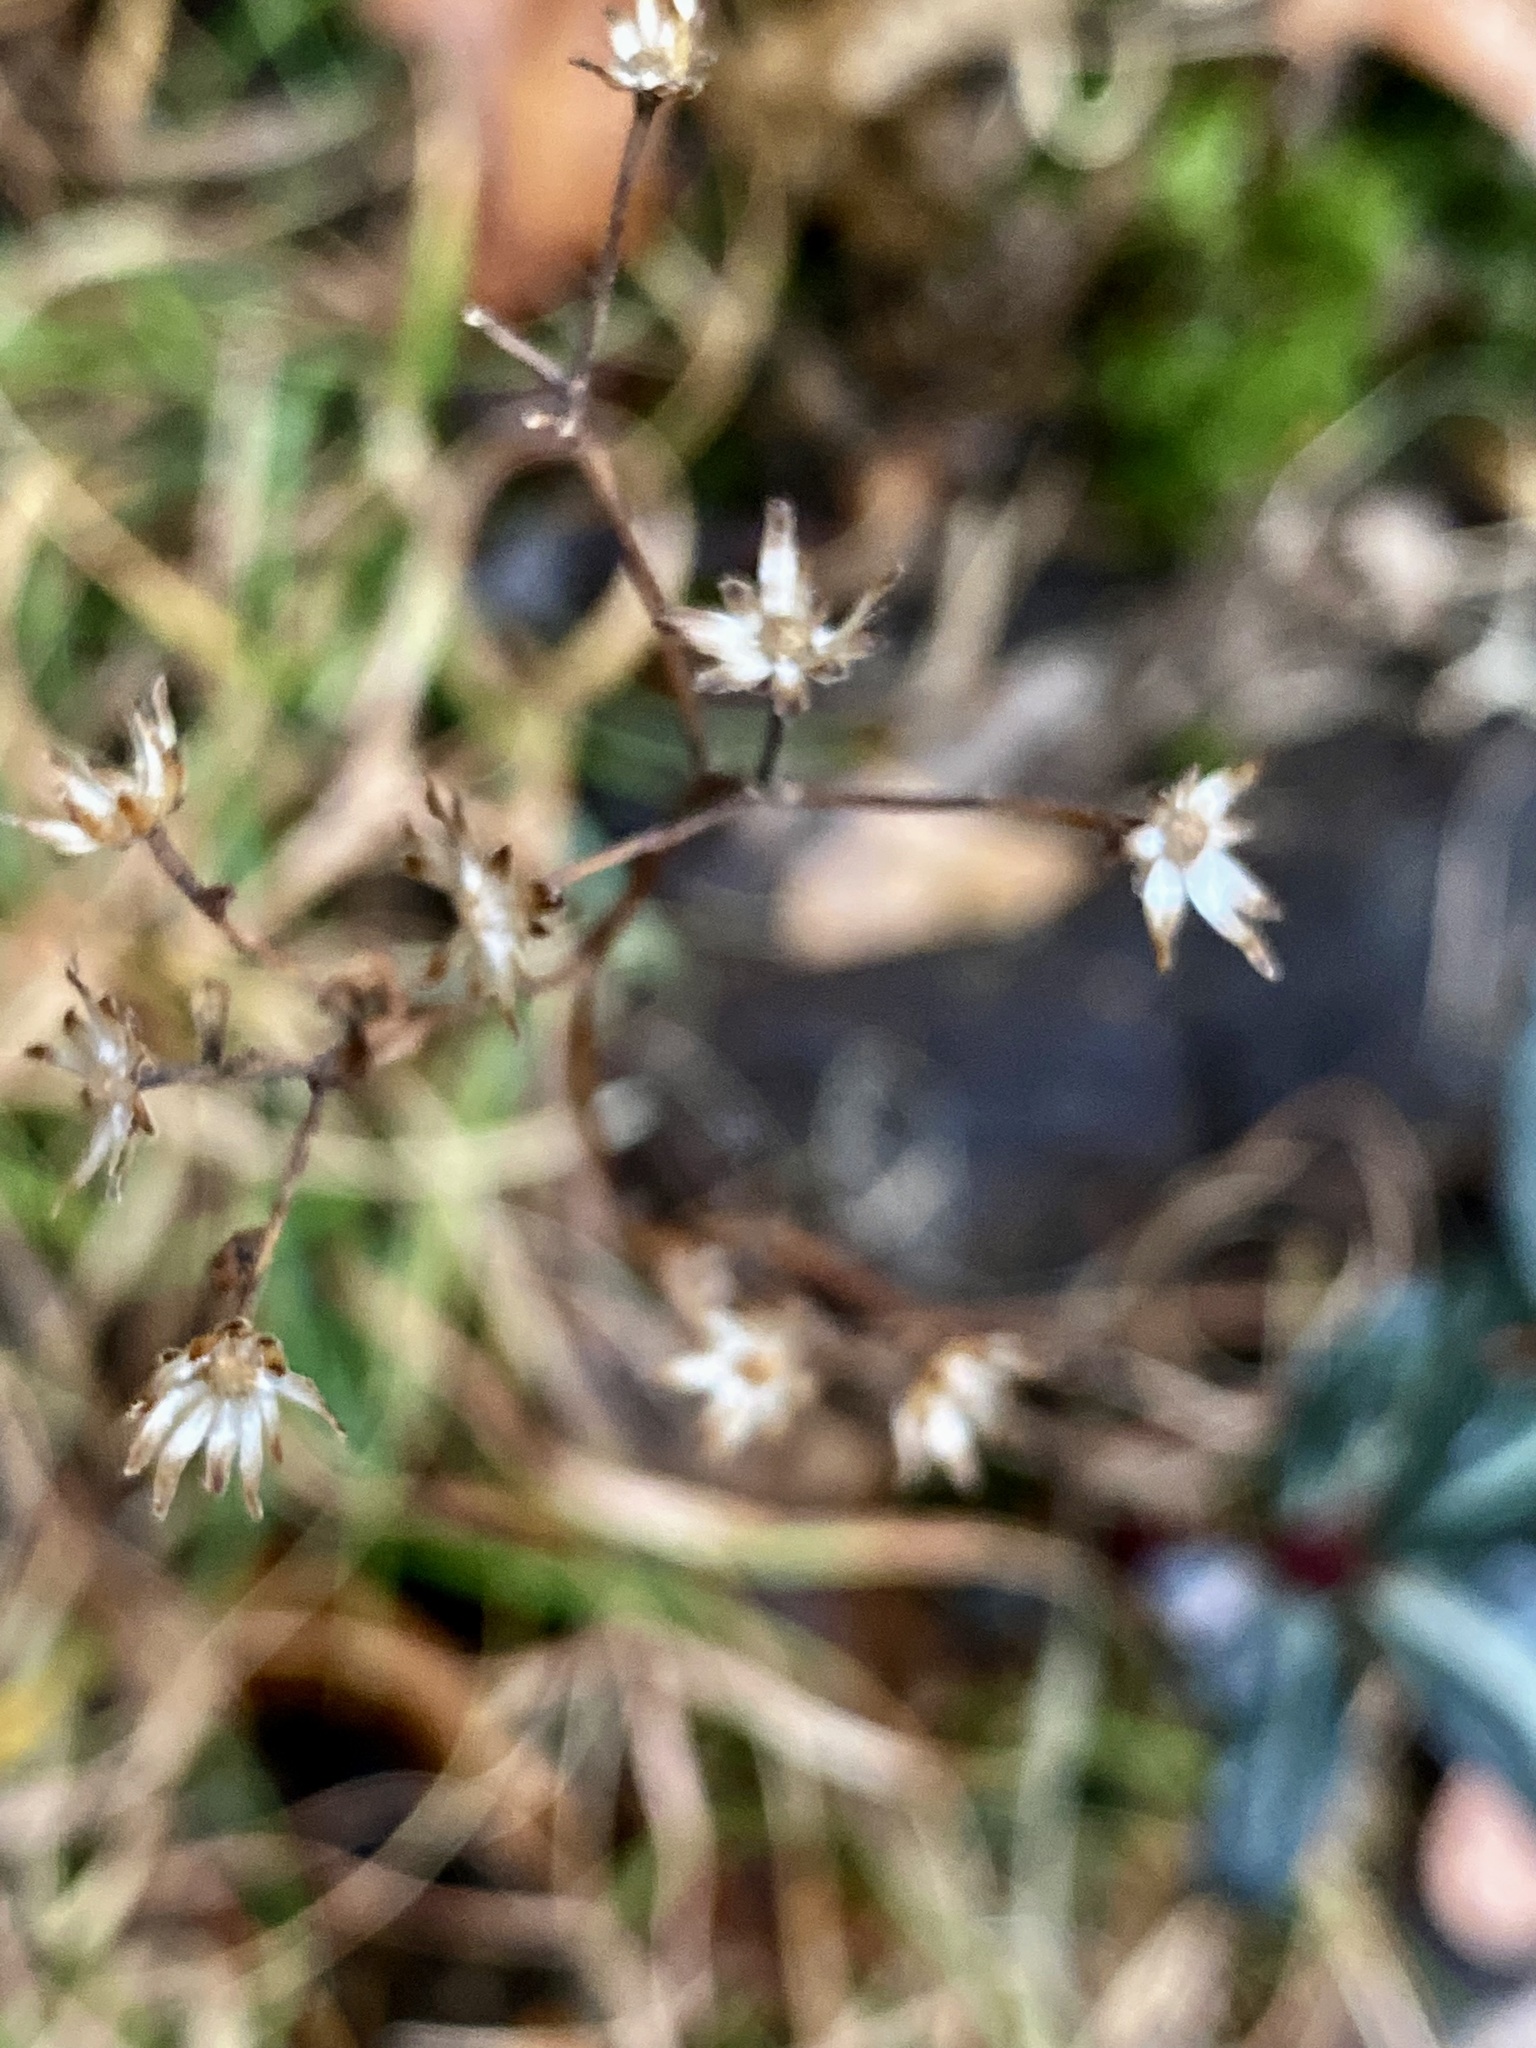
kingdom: Plantae
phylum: Tracheophyta
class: Magnoliopsida
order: Ericales
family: Ericaceae
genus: Chimaphila
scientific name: Chimaphila maculata
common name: Spotted pipsissewa
